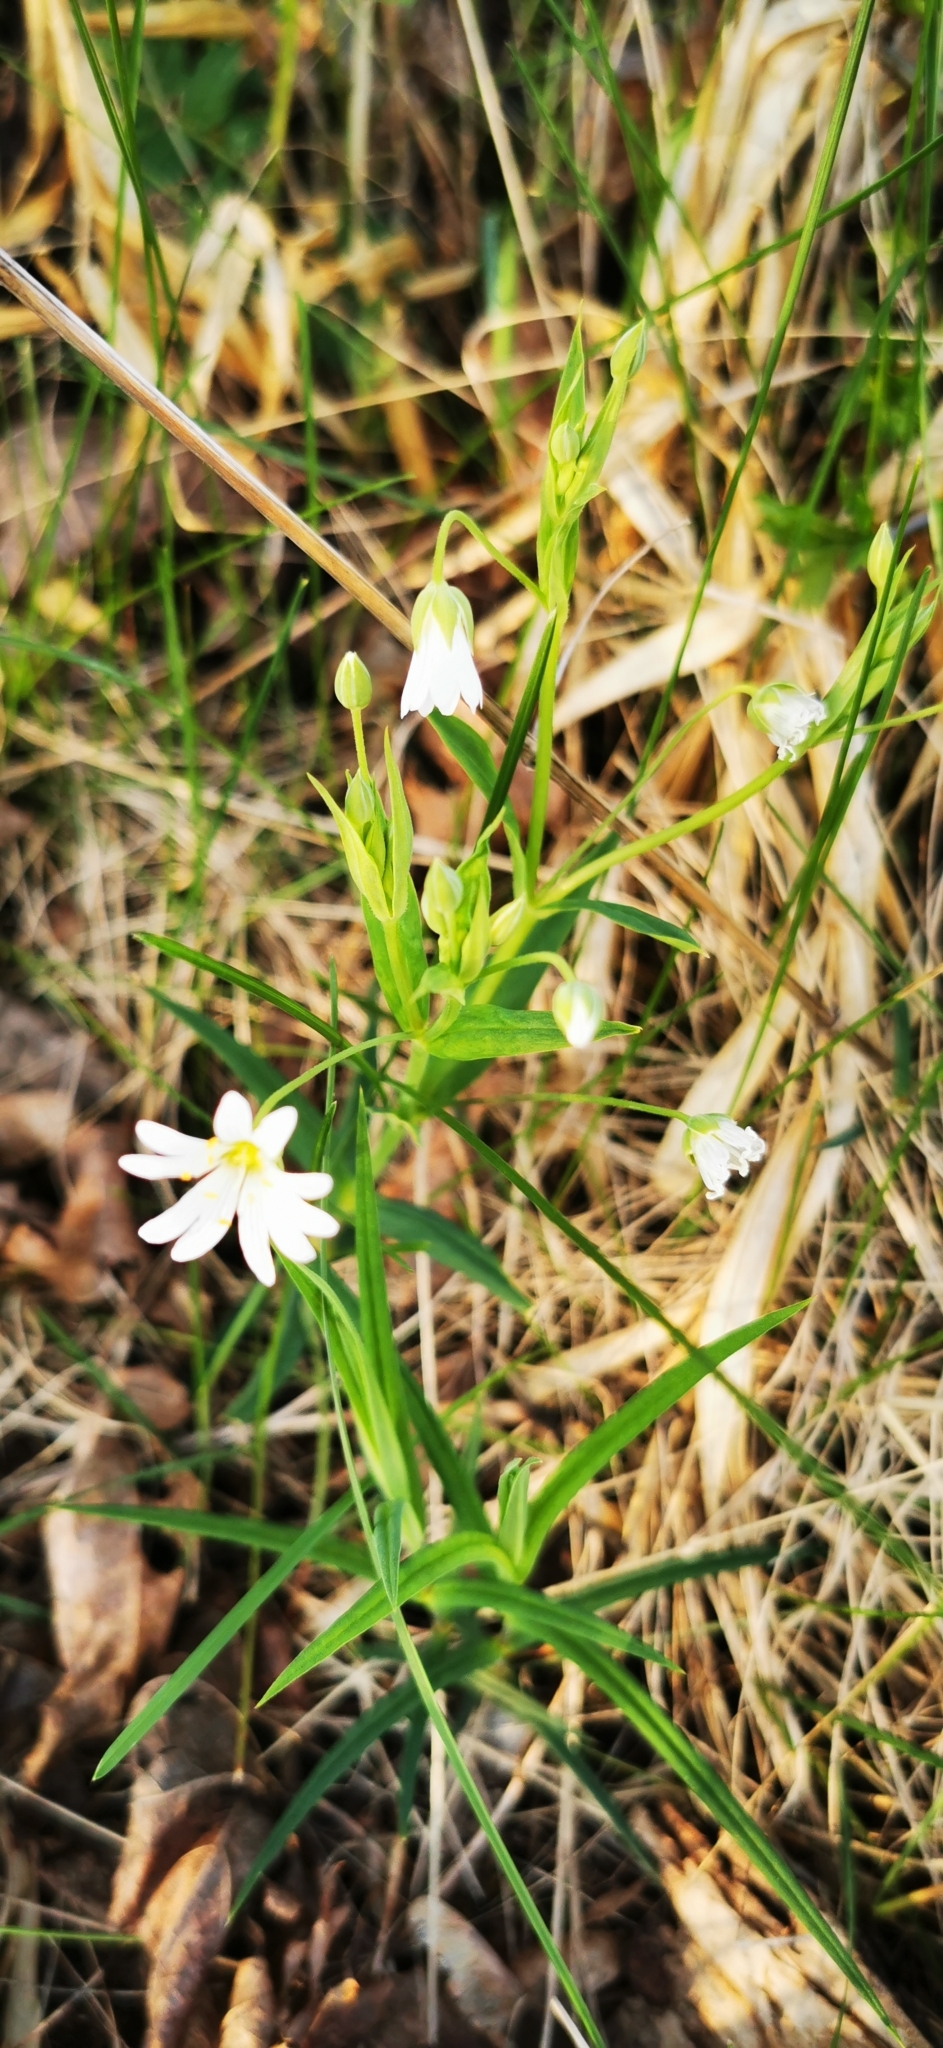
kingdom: Plantae
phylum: Tracheophyta
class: Magnoliopsida
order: Caryophyllales
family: Caryophyllaceae
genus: Rabelera
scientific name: Rabelera holostea
